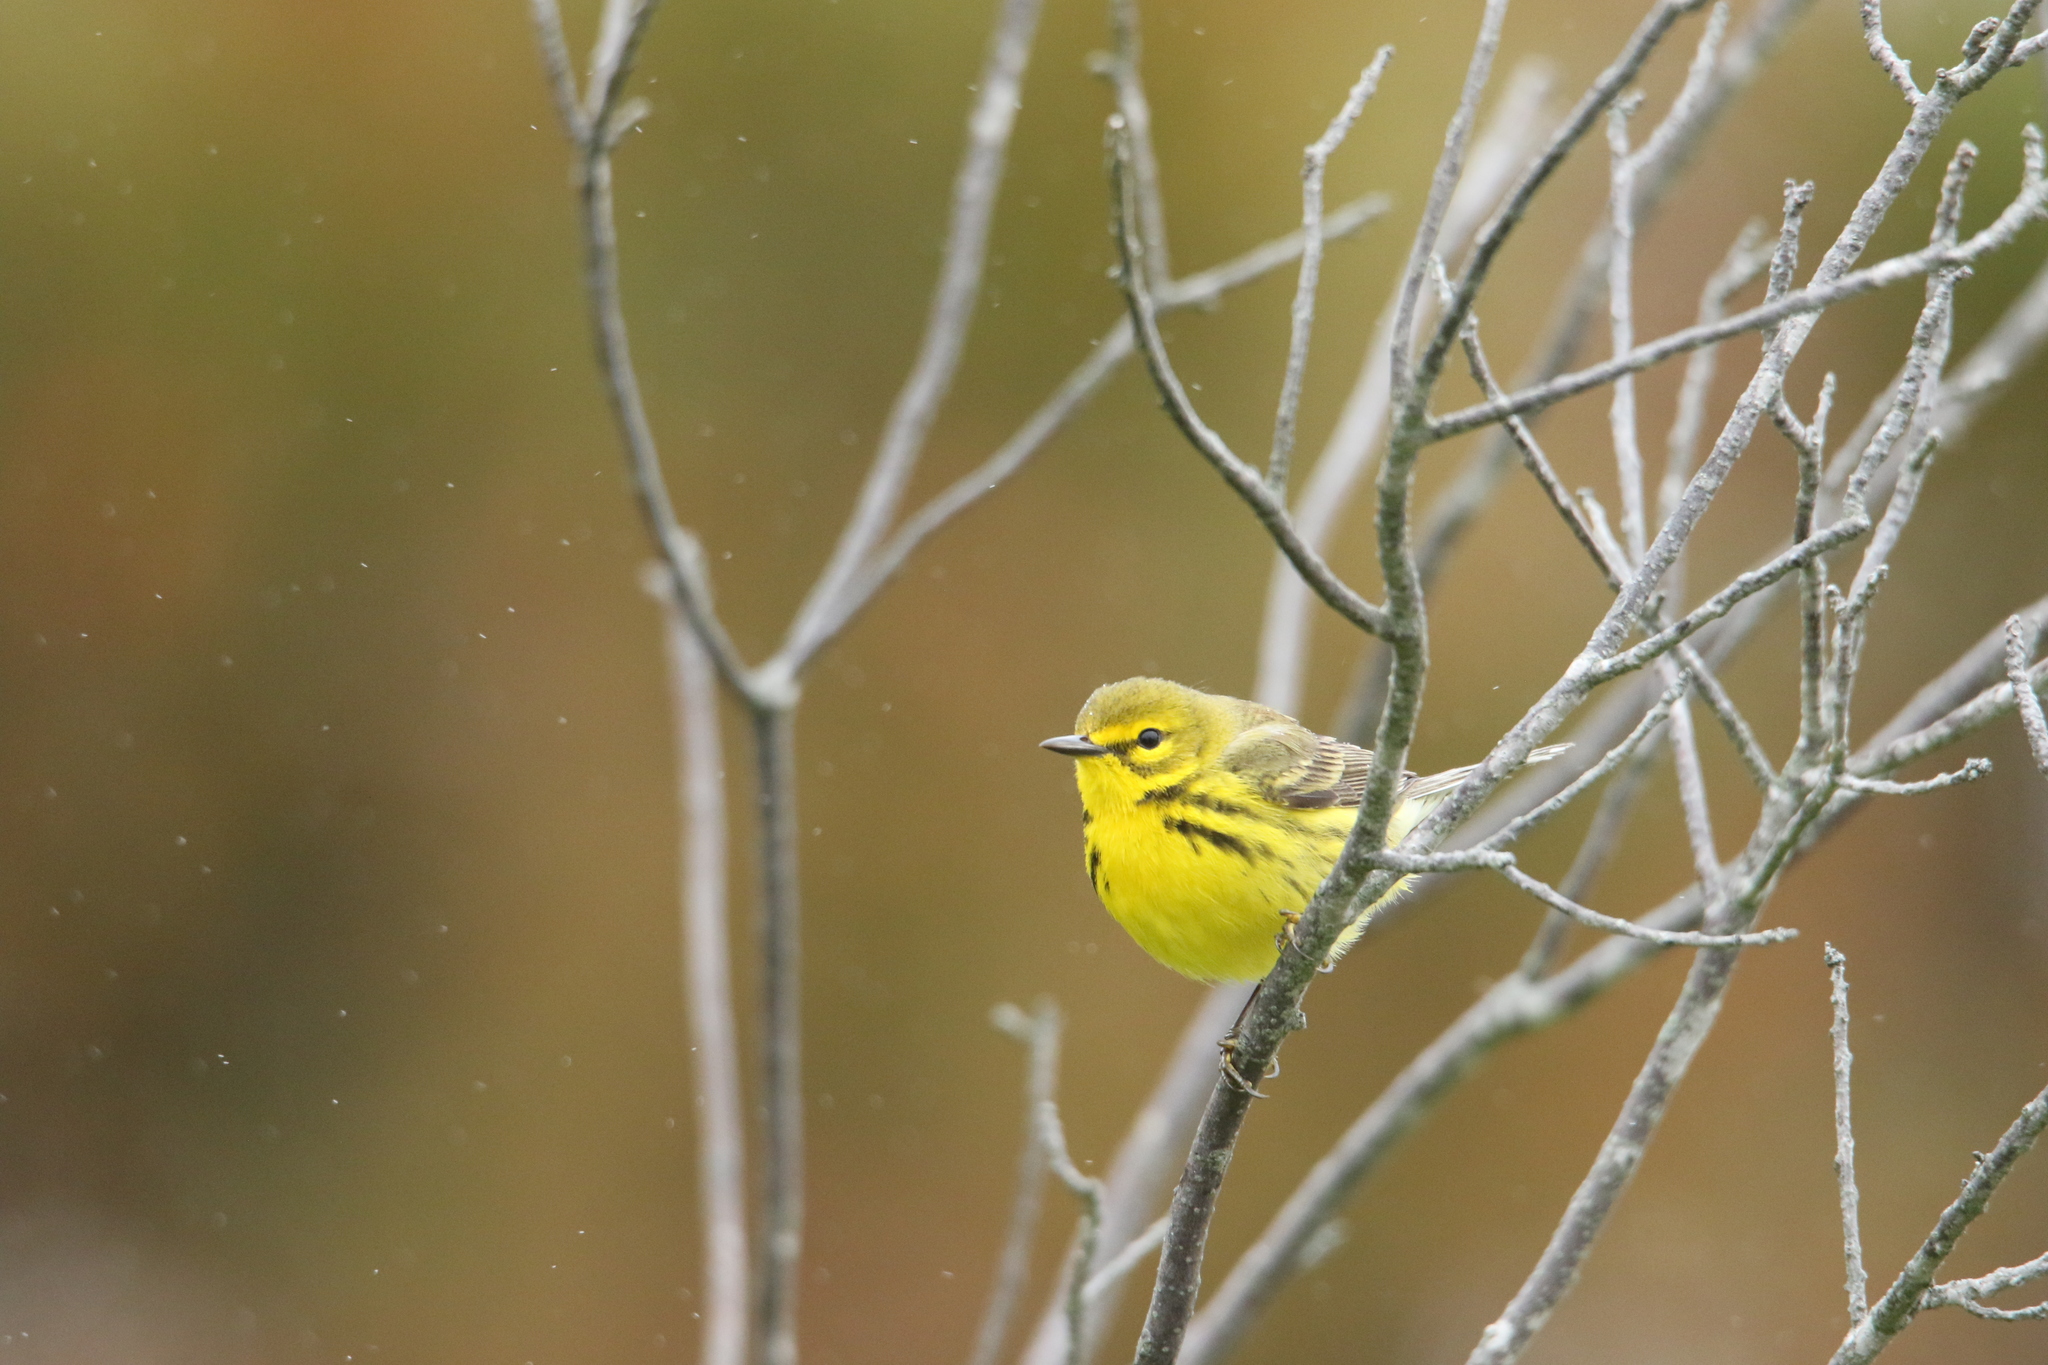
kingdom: Animalia
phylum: Chordata
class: Aves
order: Passeriformes
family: Parulidae
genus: Setophaga
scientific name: Setophaga discolor
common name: Prairie warbler
